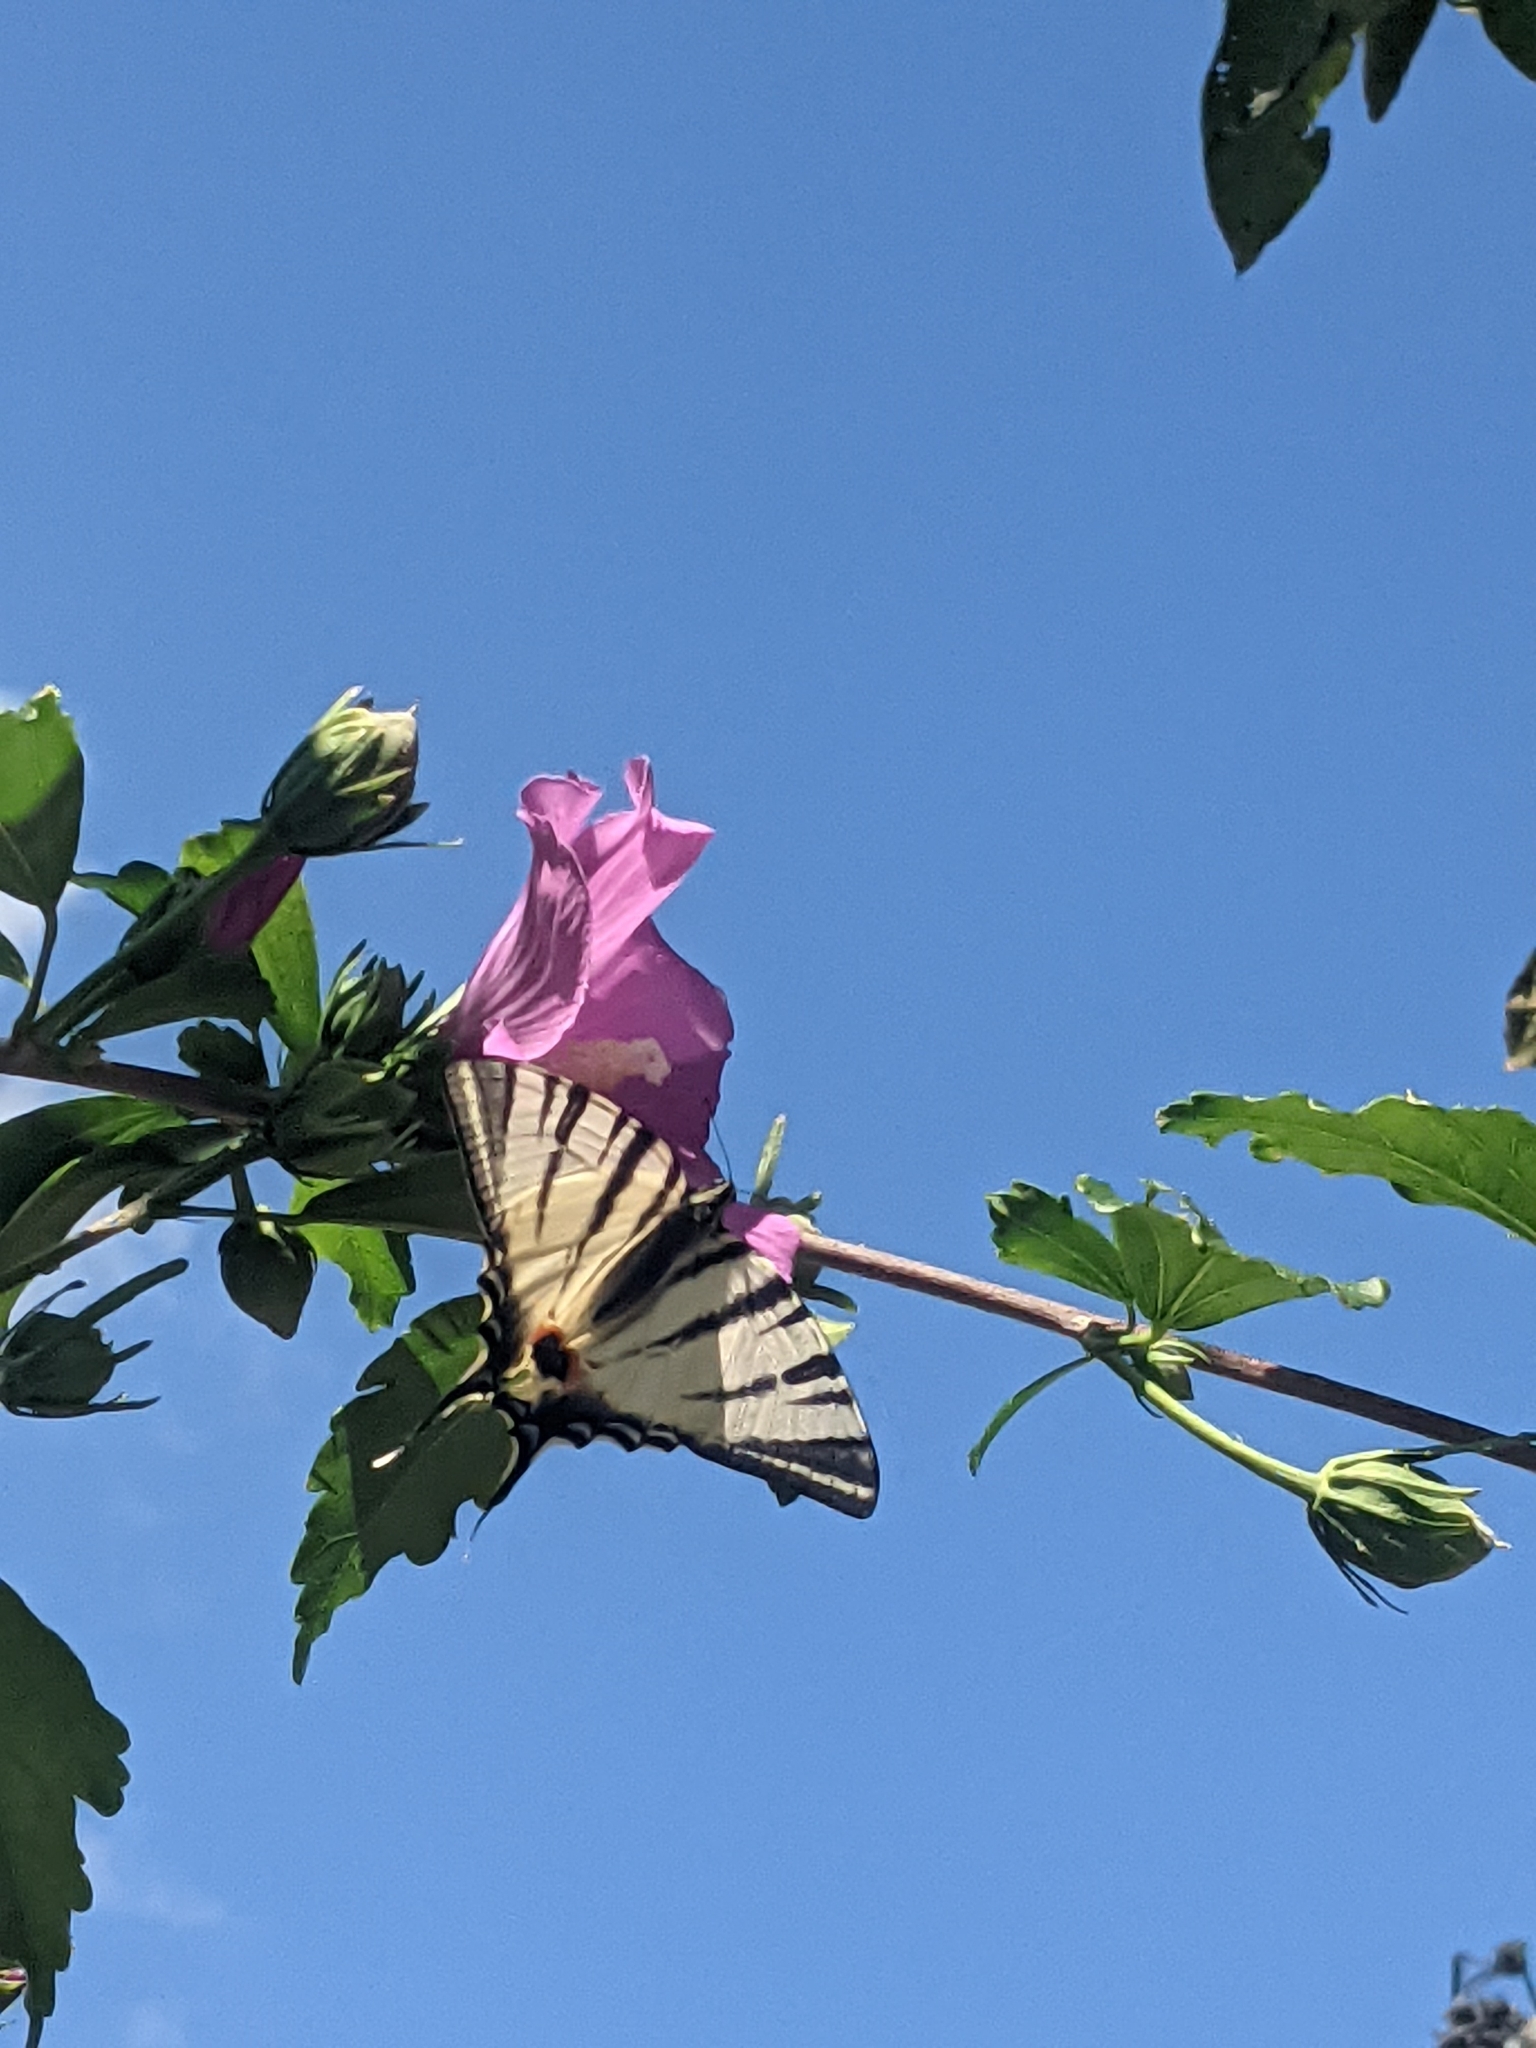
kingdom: Animalia
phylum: Arthropoda
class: Insecta
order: Lepidoptera
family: Papilionidae
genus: Iphiclides
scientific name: Iphiclides podalirius
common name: Scarce swallowtail
